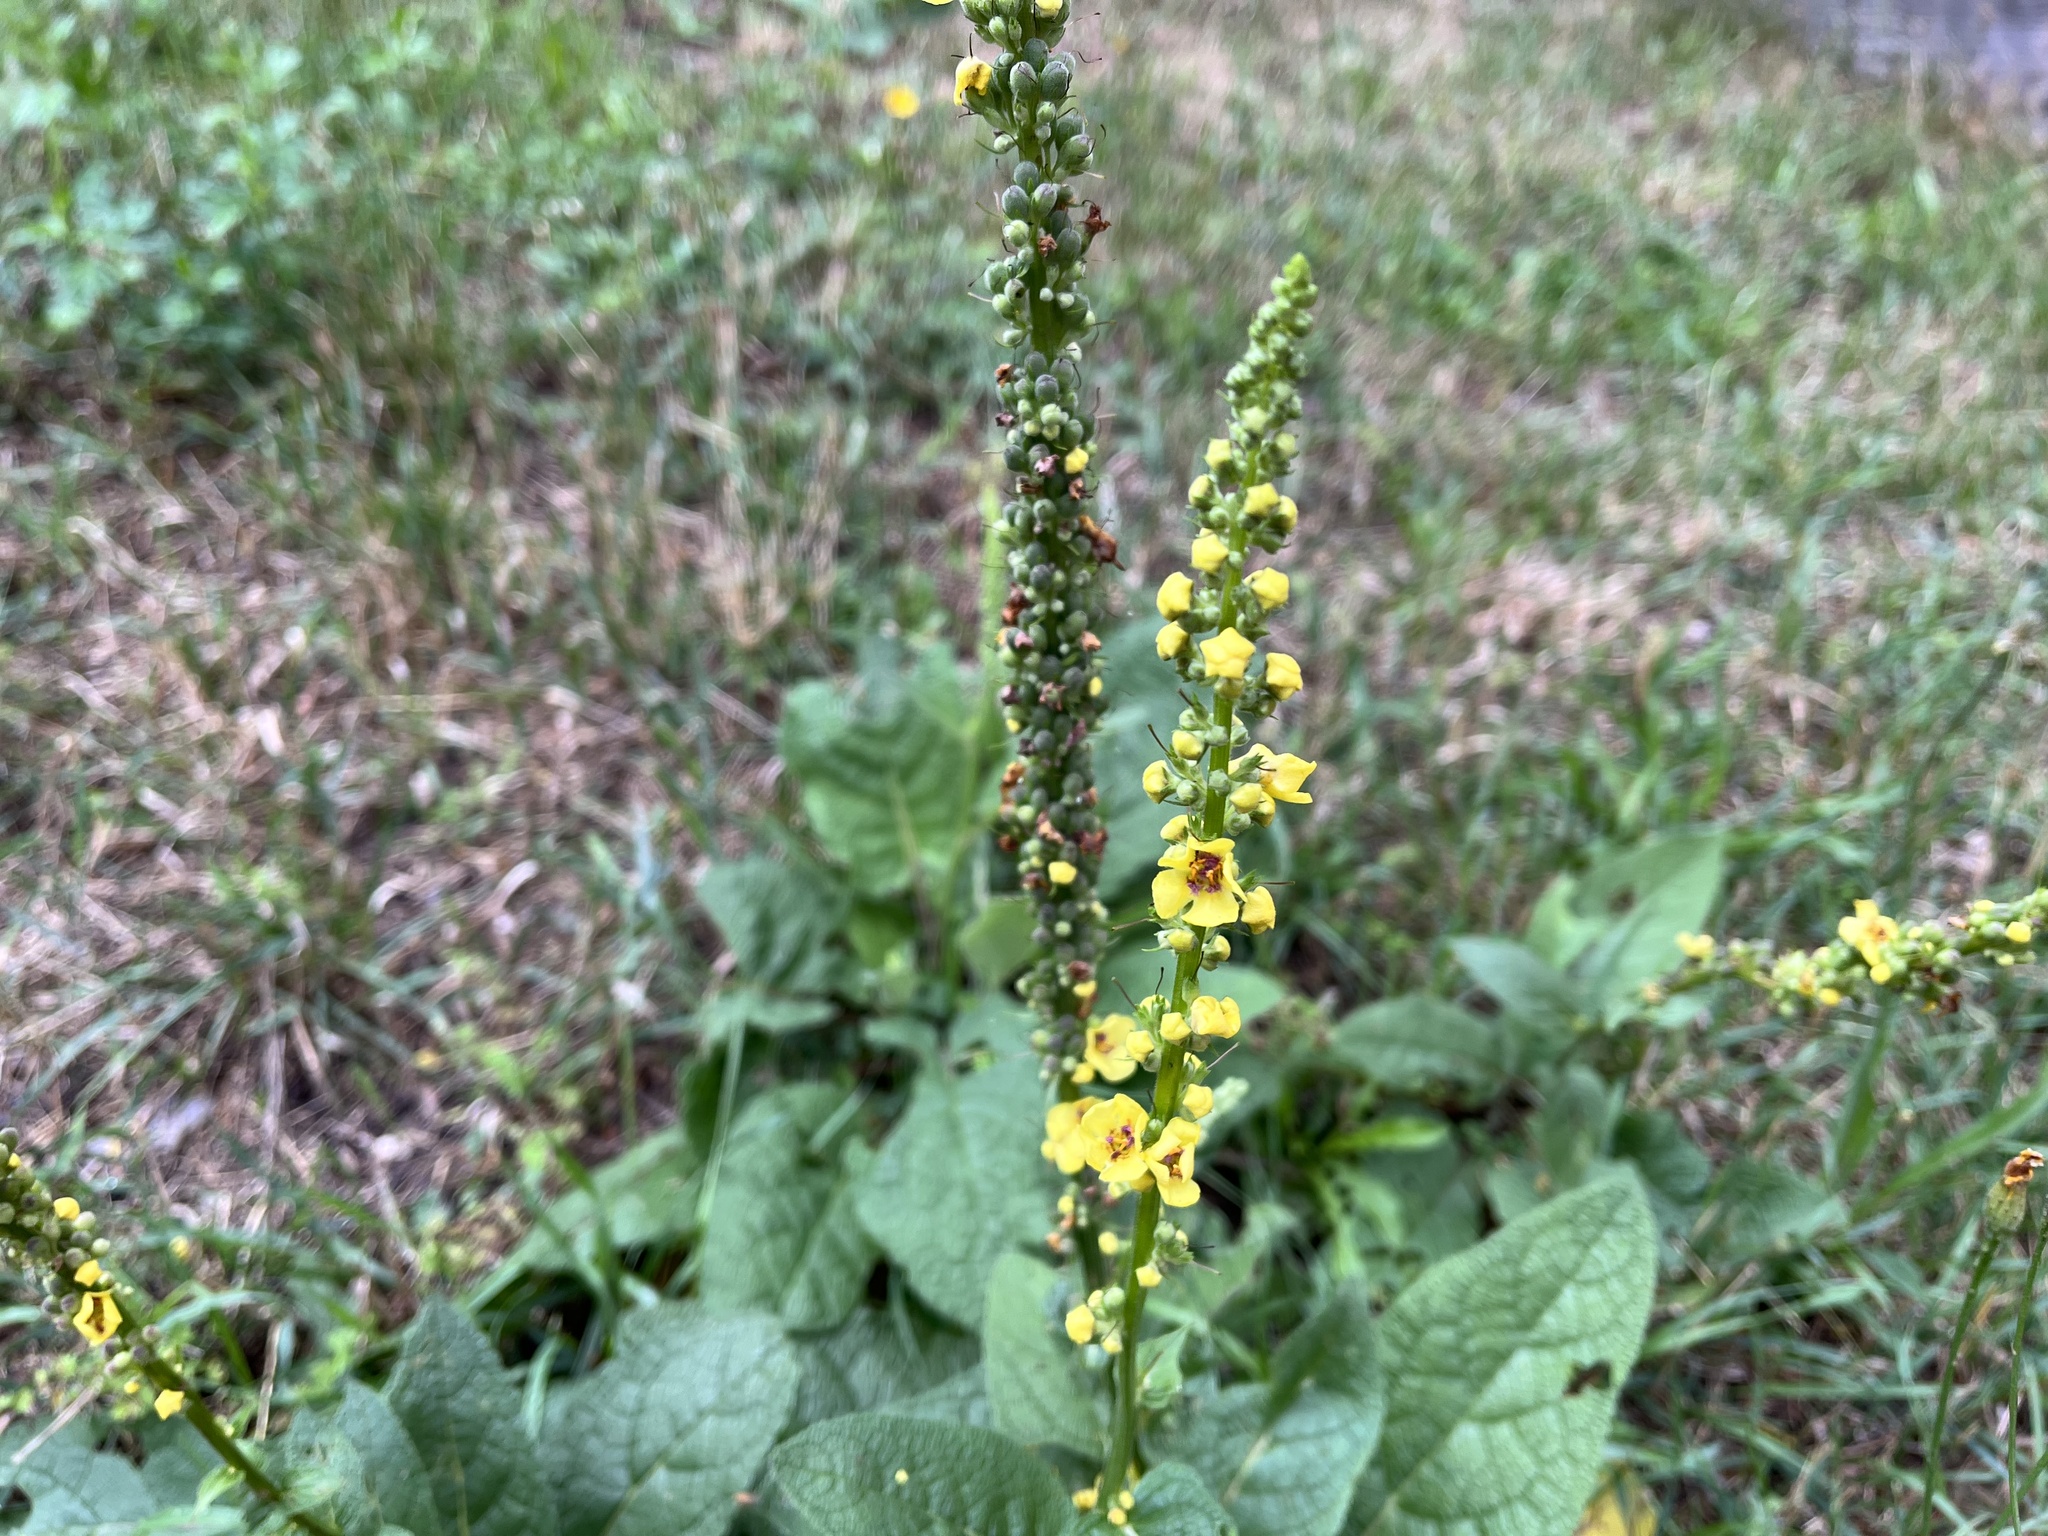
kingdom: Plantae
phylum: Tracheophyta
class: Magnoliopsida
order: Lamiales
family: Scrophulariaceae
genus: Verbascum
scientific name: Verbascum nigrum
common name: Dark mullein
